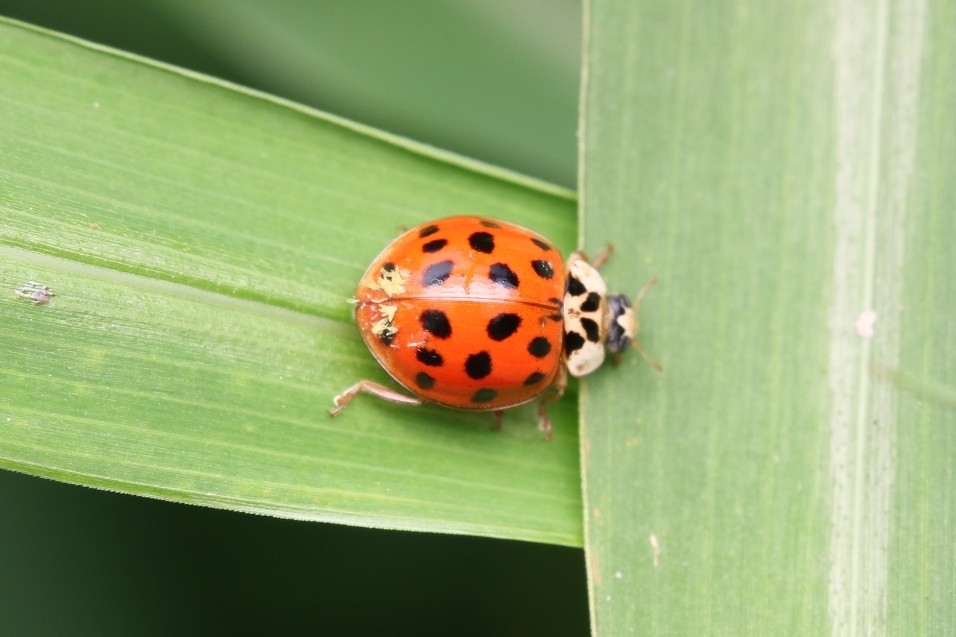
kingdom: Animalia
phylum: Arthropoda
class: Insecta
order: Coleoptera
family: Coccinellidae
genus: Harmonia
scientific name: Harmonia axyridis
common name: Harlequin ladybird
